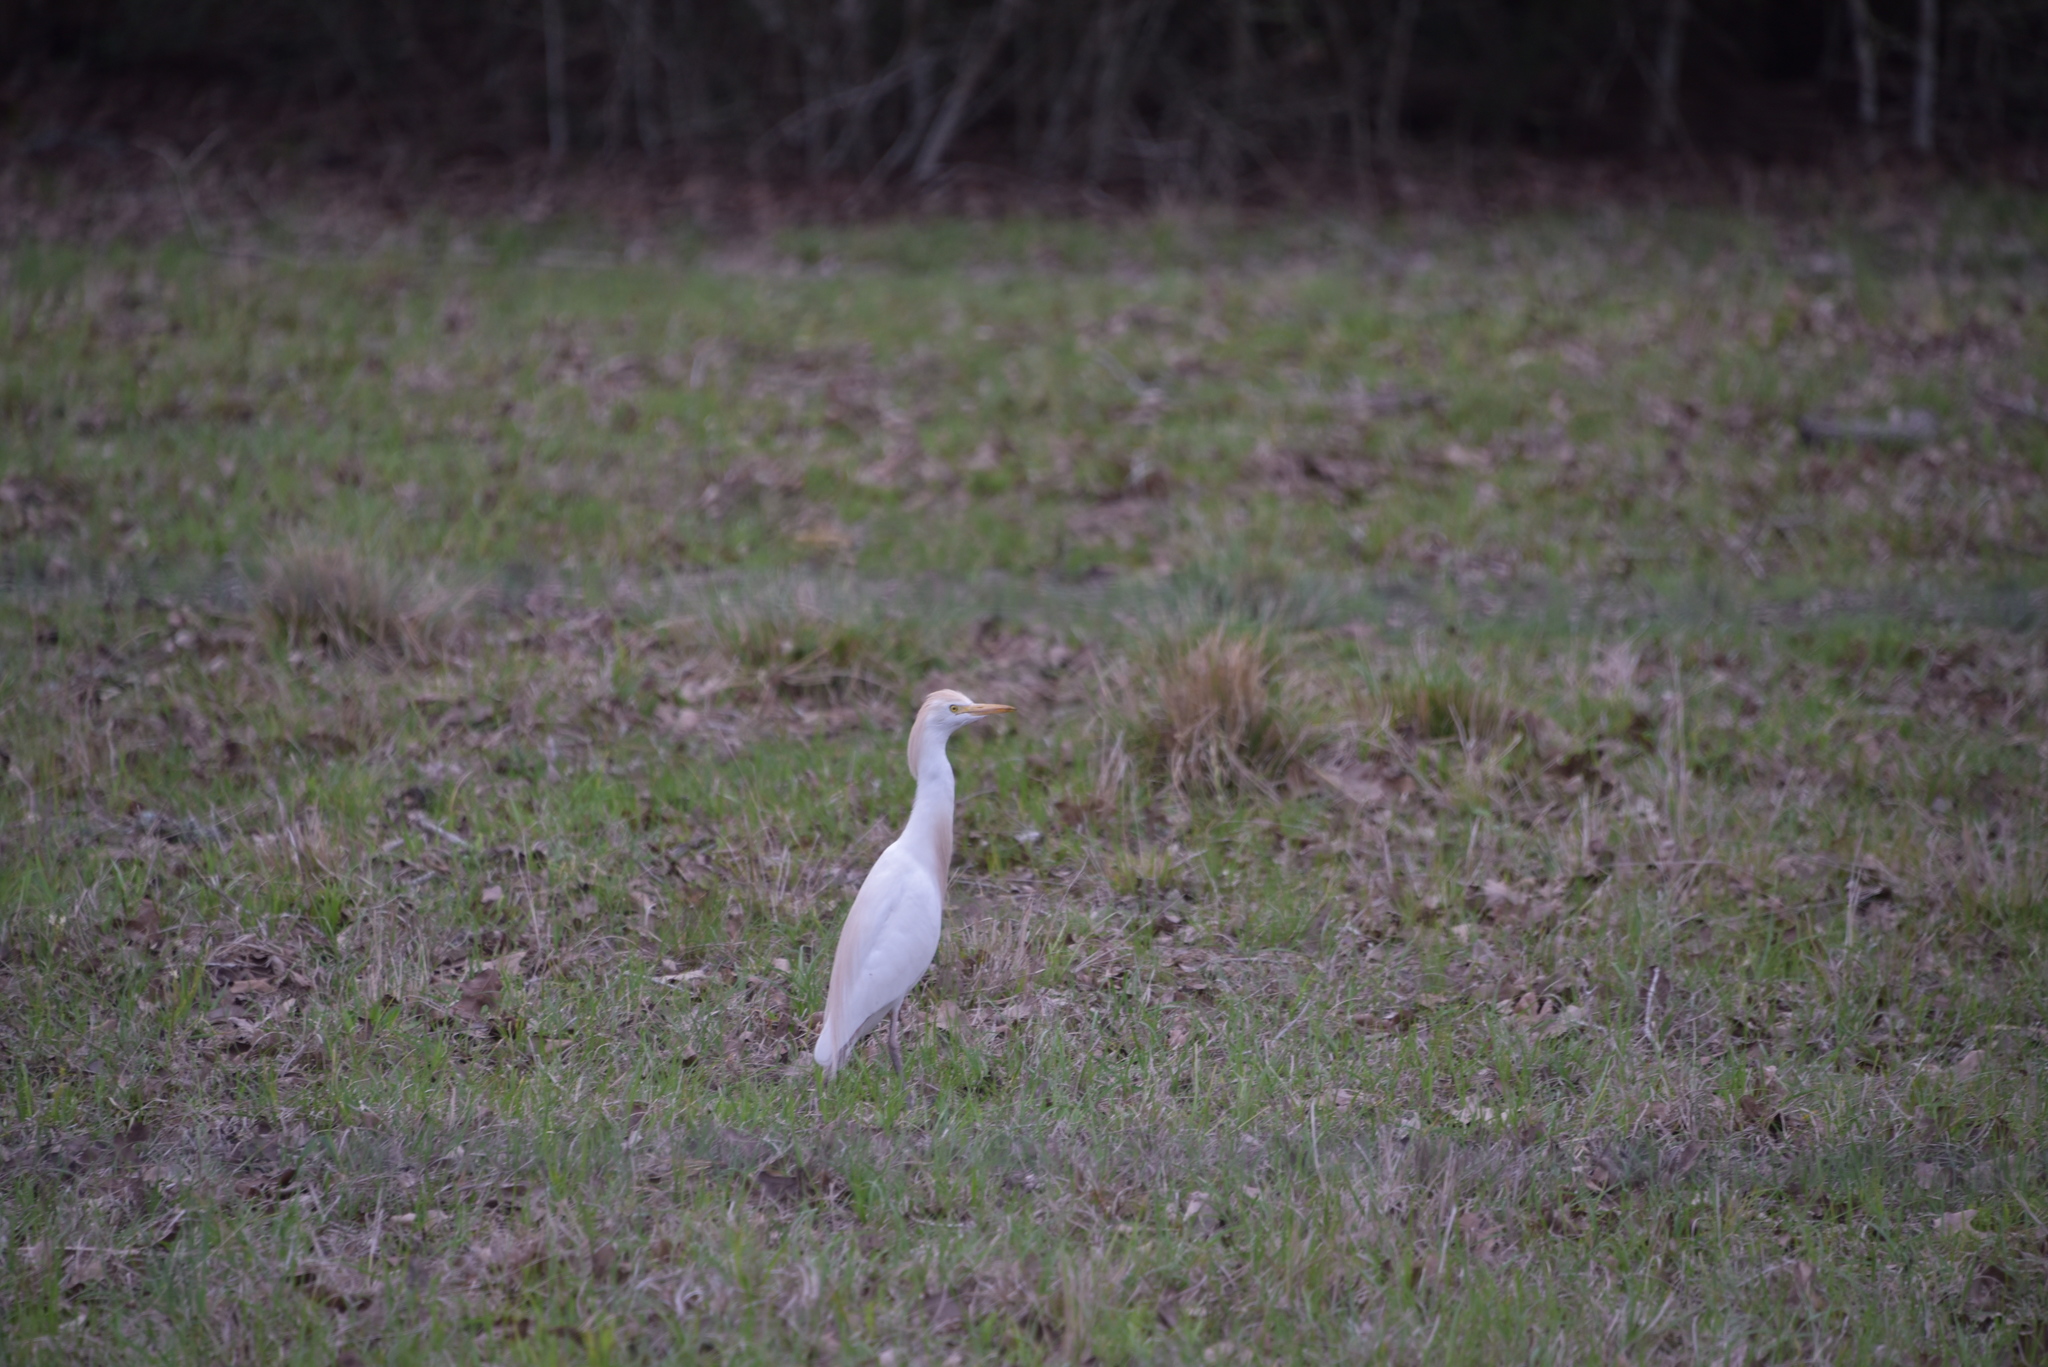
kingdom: Animalia
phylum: Chordata
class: Aves
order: Pelecaniformes
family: Ardeidae
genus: Bubulcus
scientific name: Bubulcus ibis
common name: Cattle egret
